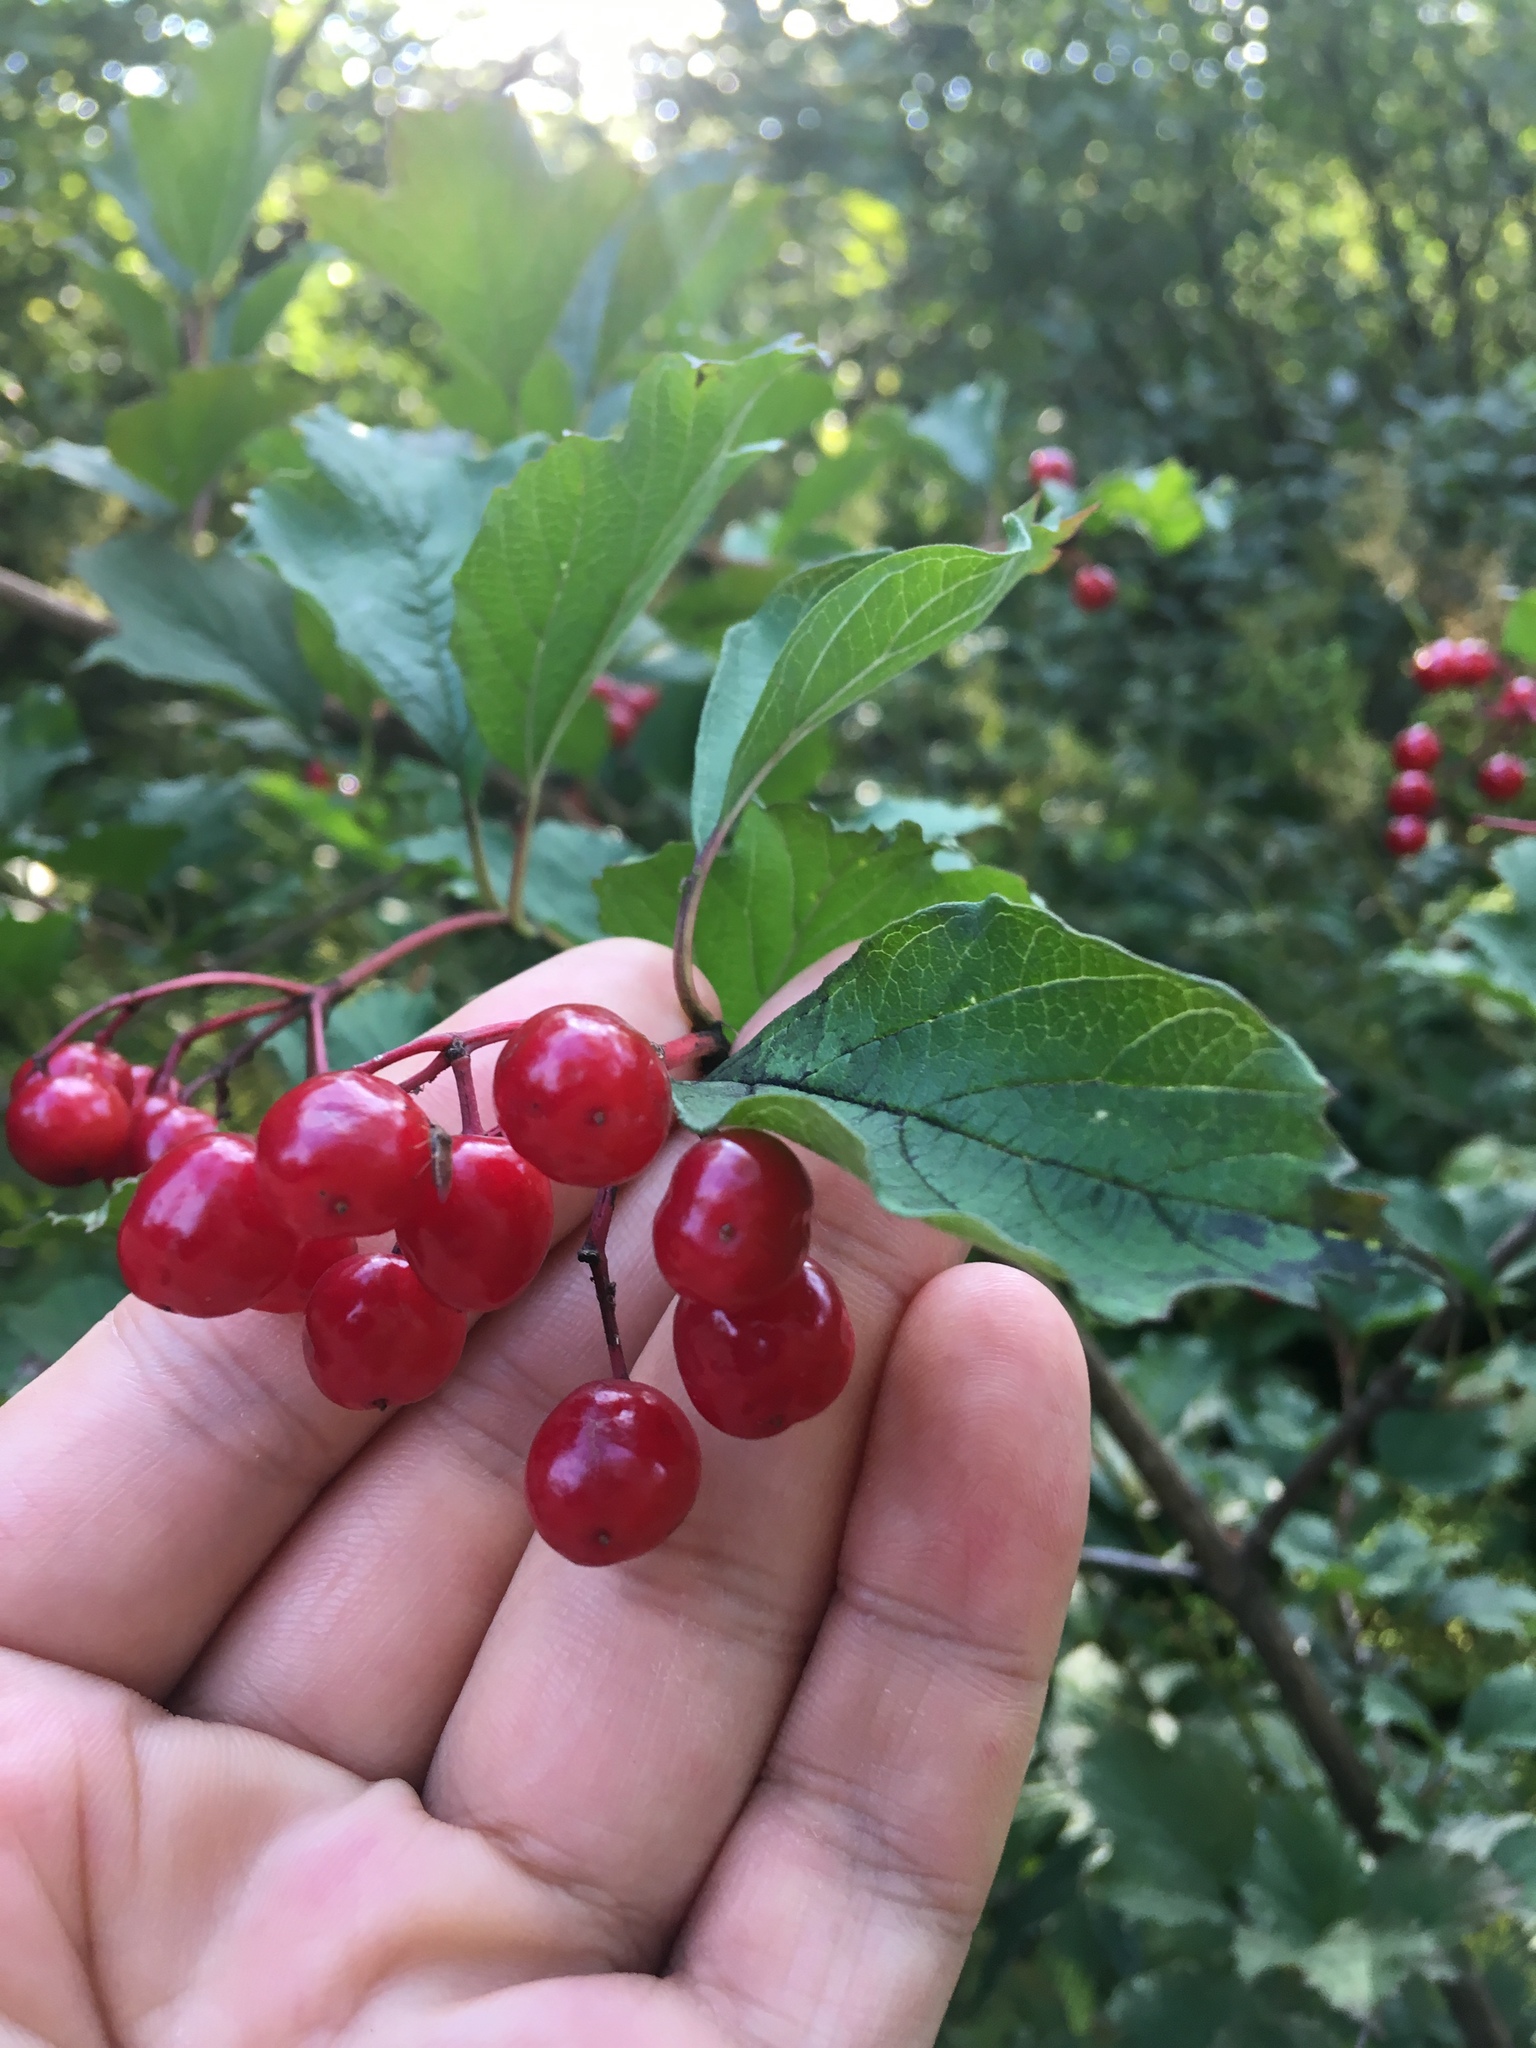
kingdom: Plantae
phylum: Tracheophyta
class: Magnoliopsida
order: Dipsacales
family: Viburnaceae
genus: Viburnum
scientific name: Viburnum opulus
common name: Guelder-rose
